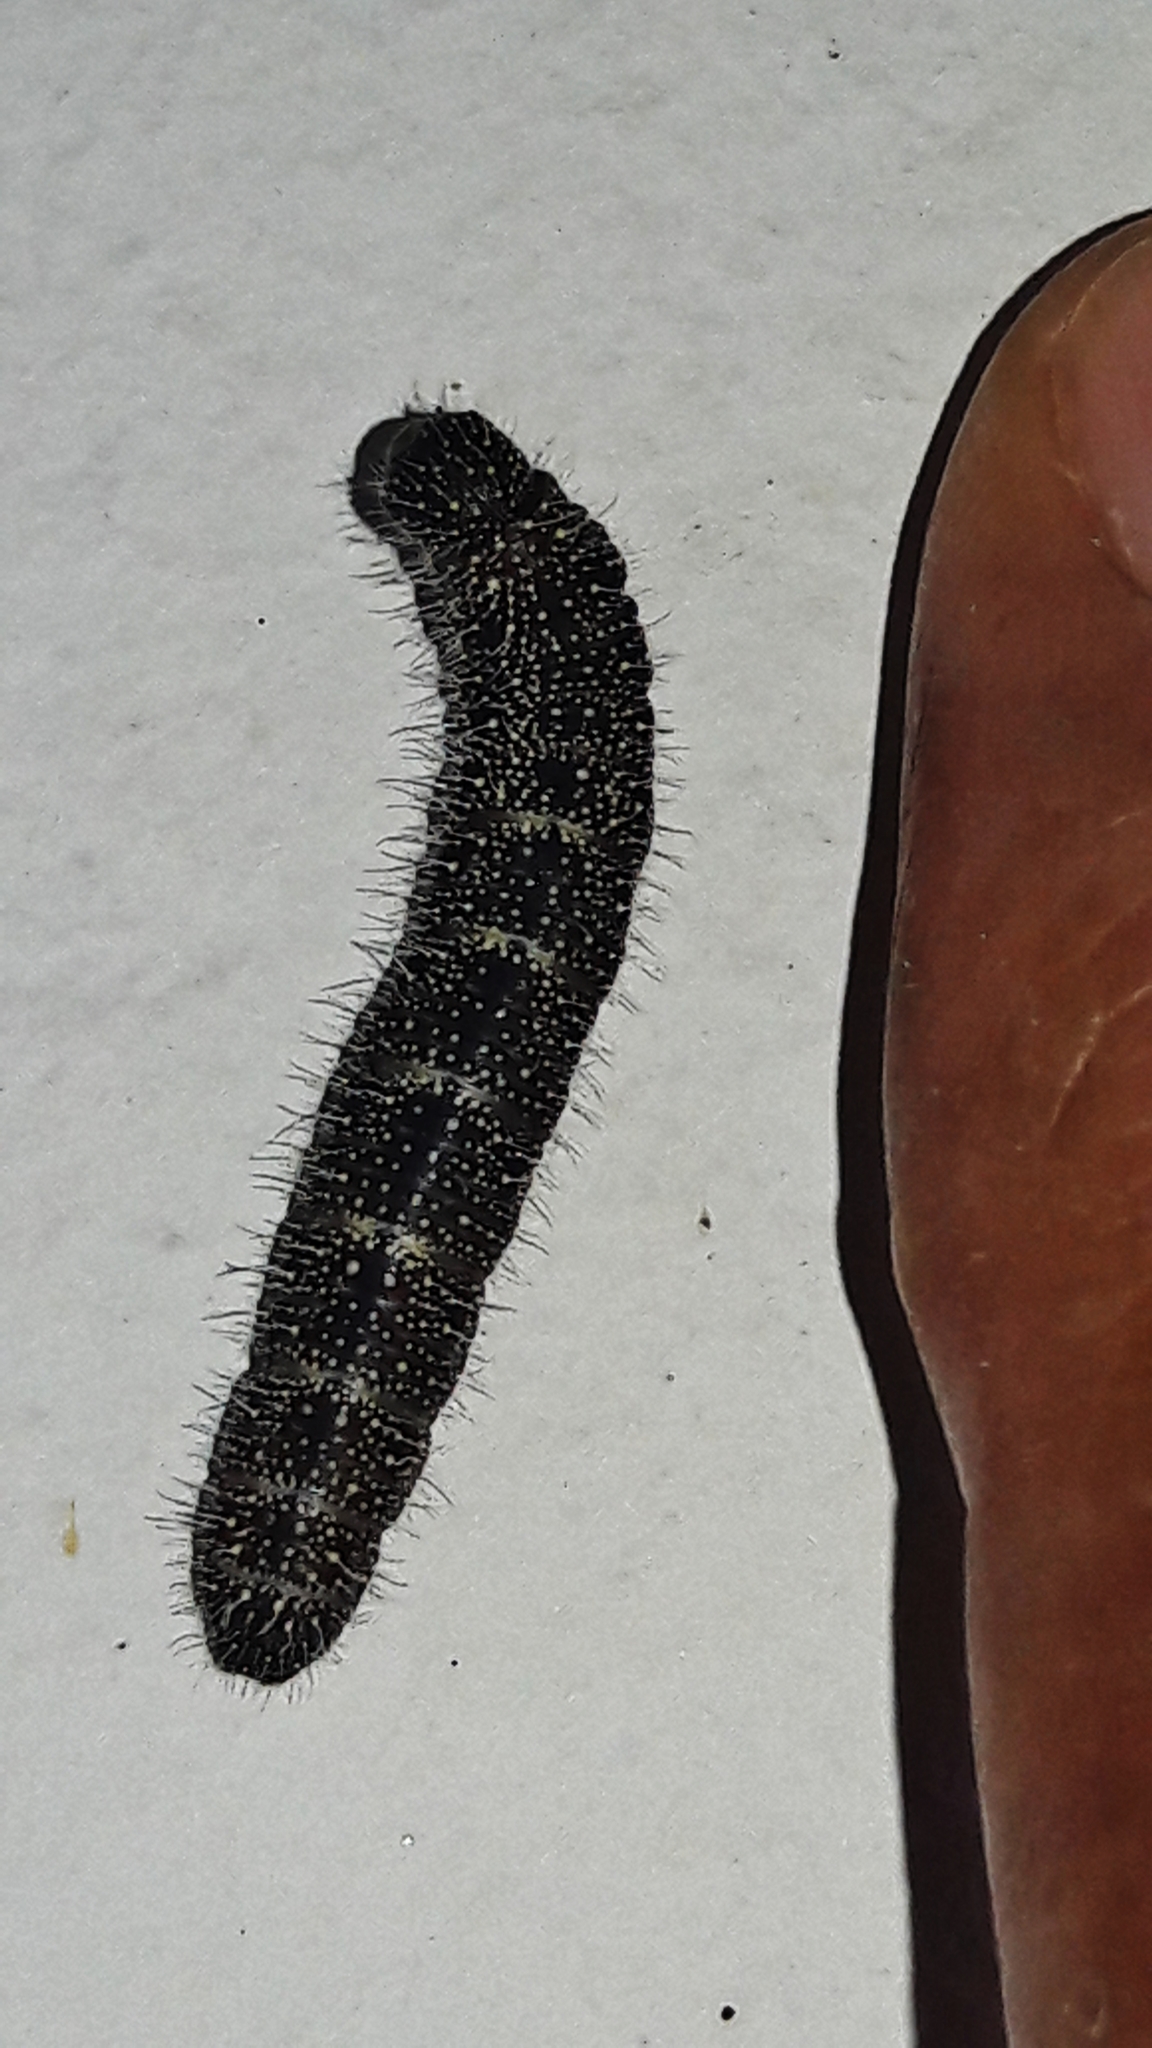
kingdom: Animalia
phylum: Arthropoda
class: Insecta
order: Lepidoptera
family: Pieridae
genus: Melete
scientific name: Melete lycimnia
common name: Common melwhite
